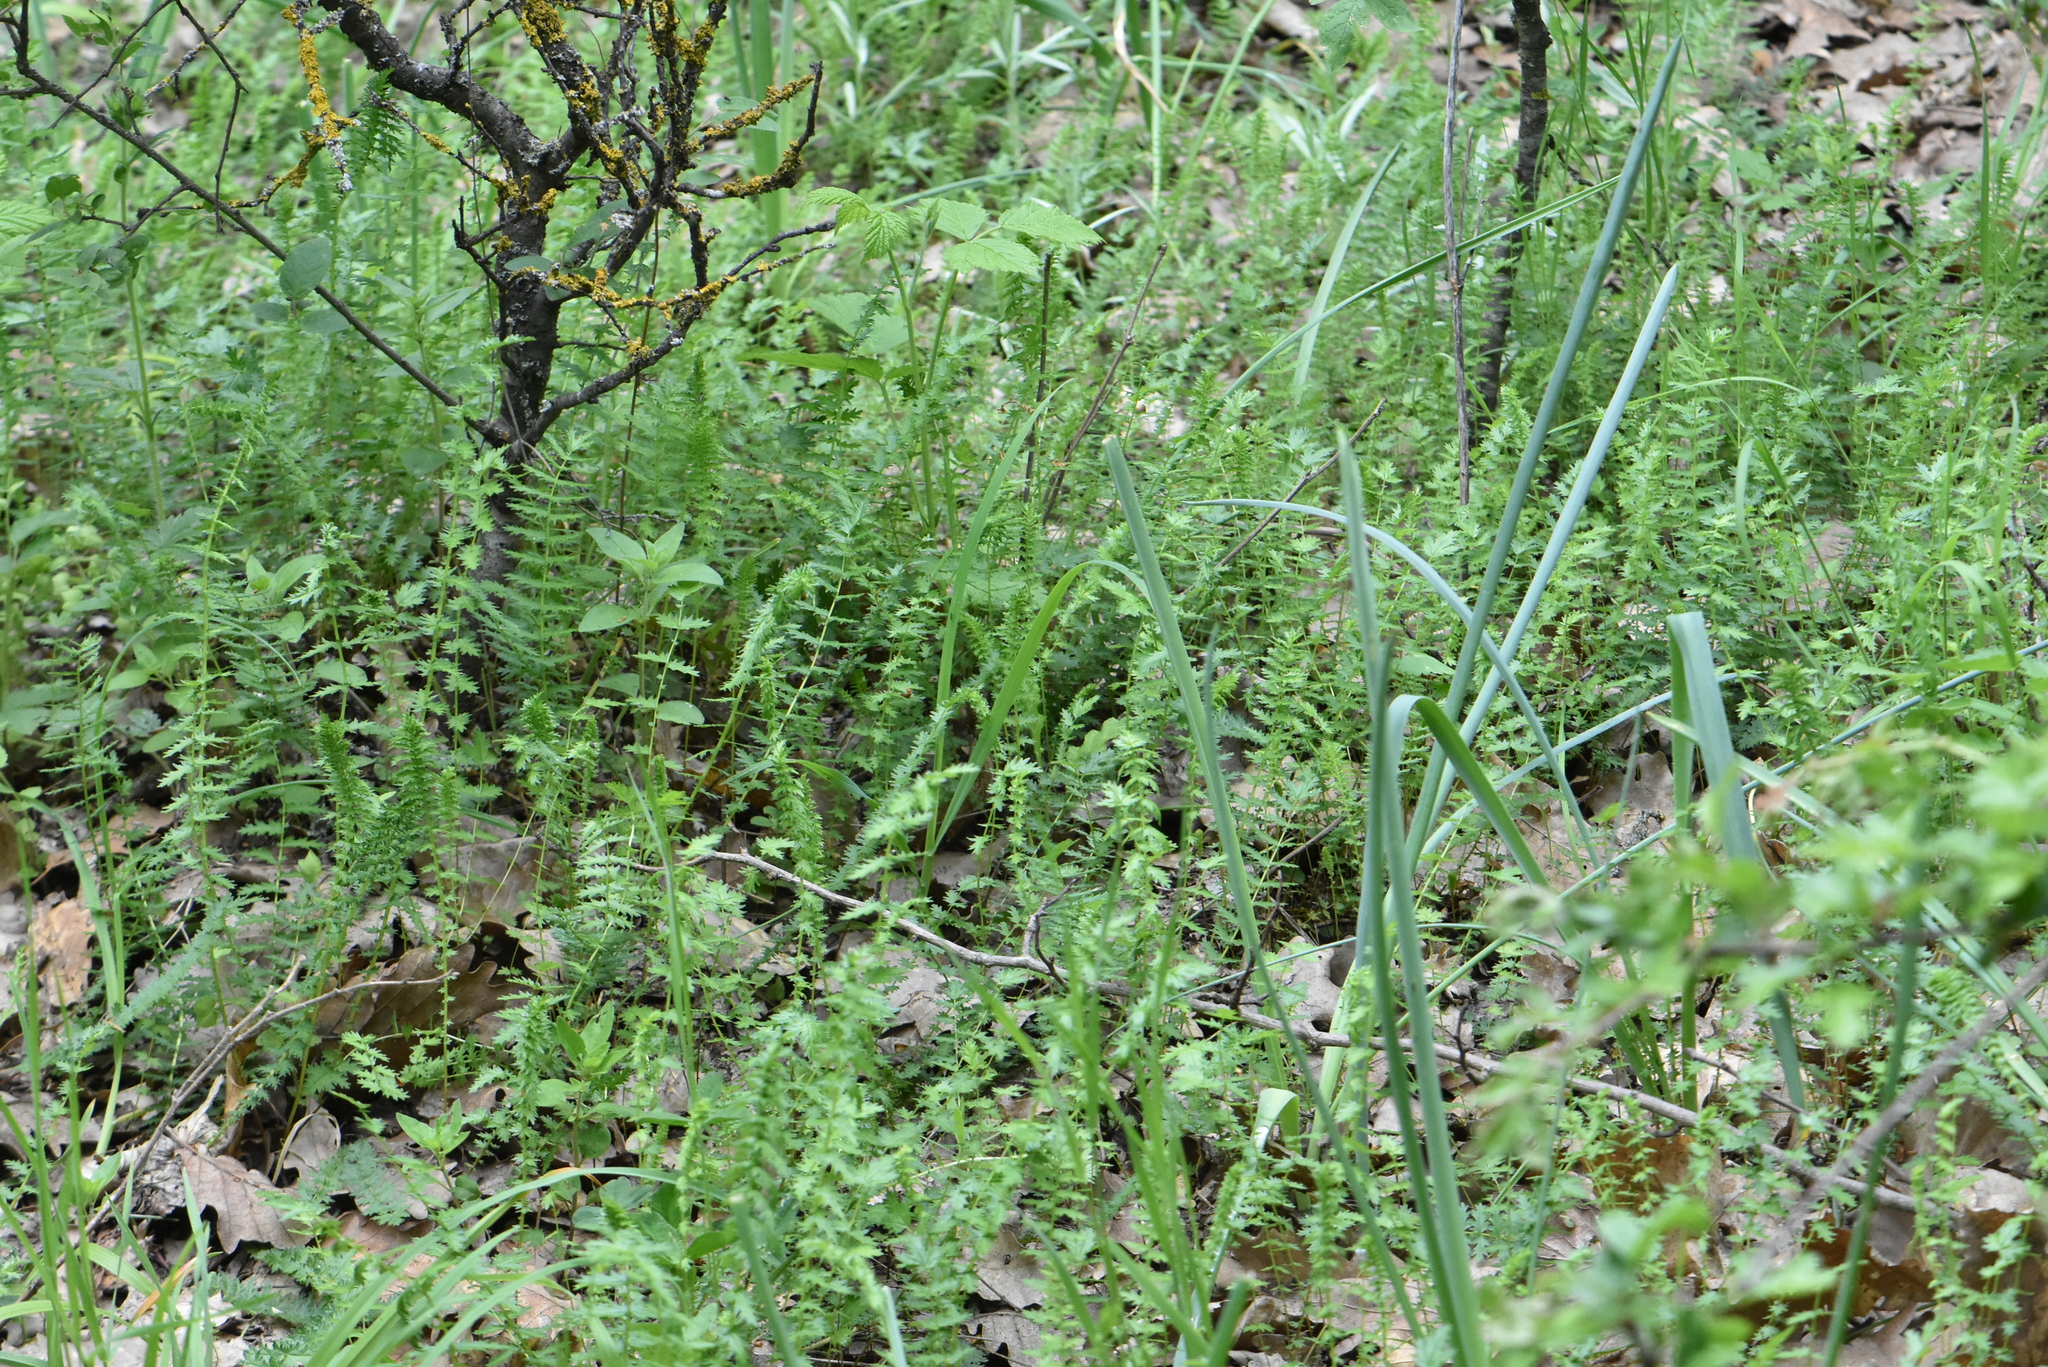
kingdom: Plantae
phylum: Tracheophyta
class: Magnoliopsida
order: Rosales
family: Rosaceae
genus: Filipendula
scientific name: Filipendula vulgaris
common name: Dropwort
